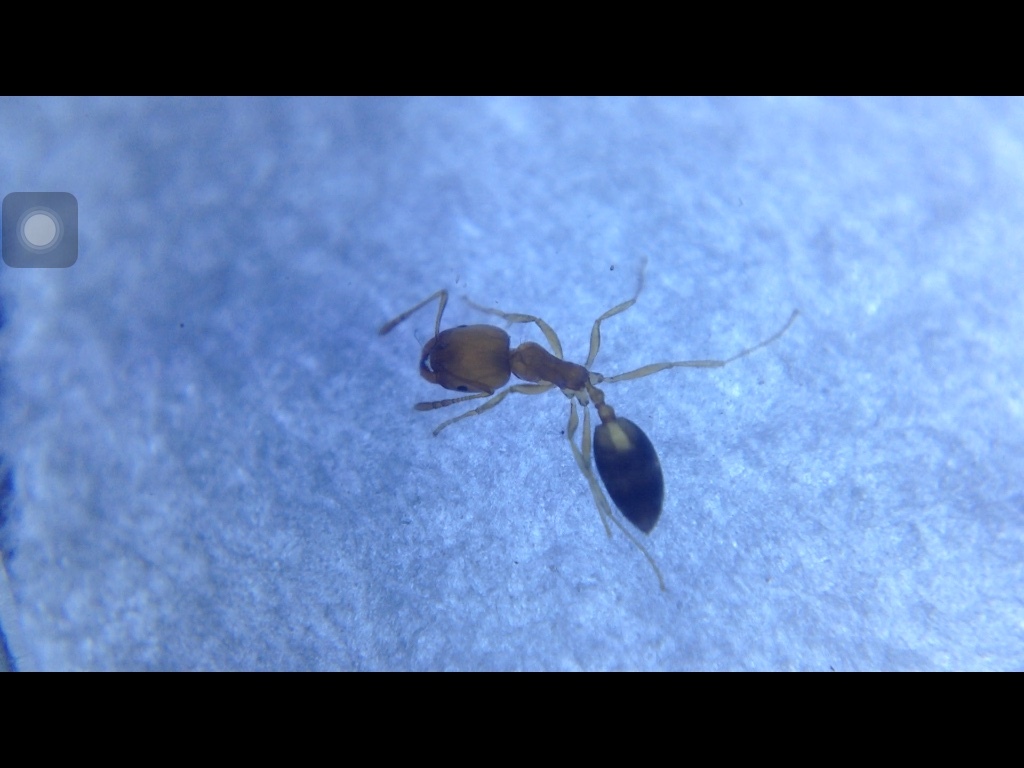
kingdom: Animalia
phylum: Arthropoda
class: Insecta
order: Hymenoptera
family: Formicidae
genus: Monomorium
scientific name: Monomorium destructor
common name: Destructive trailing ant
